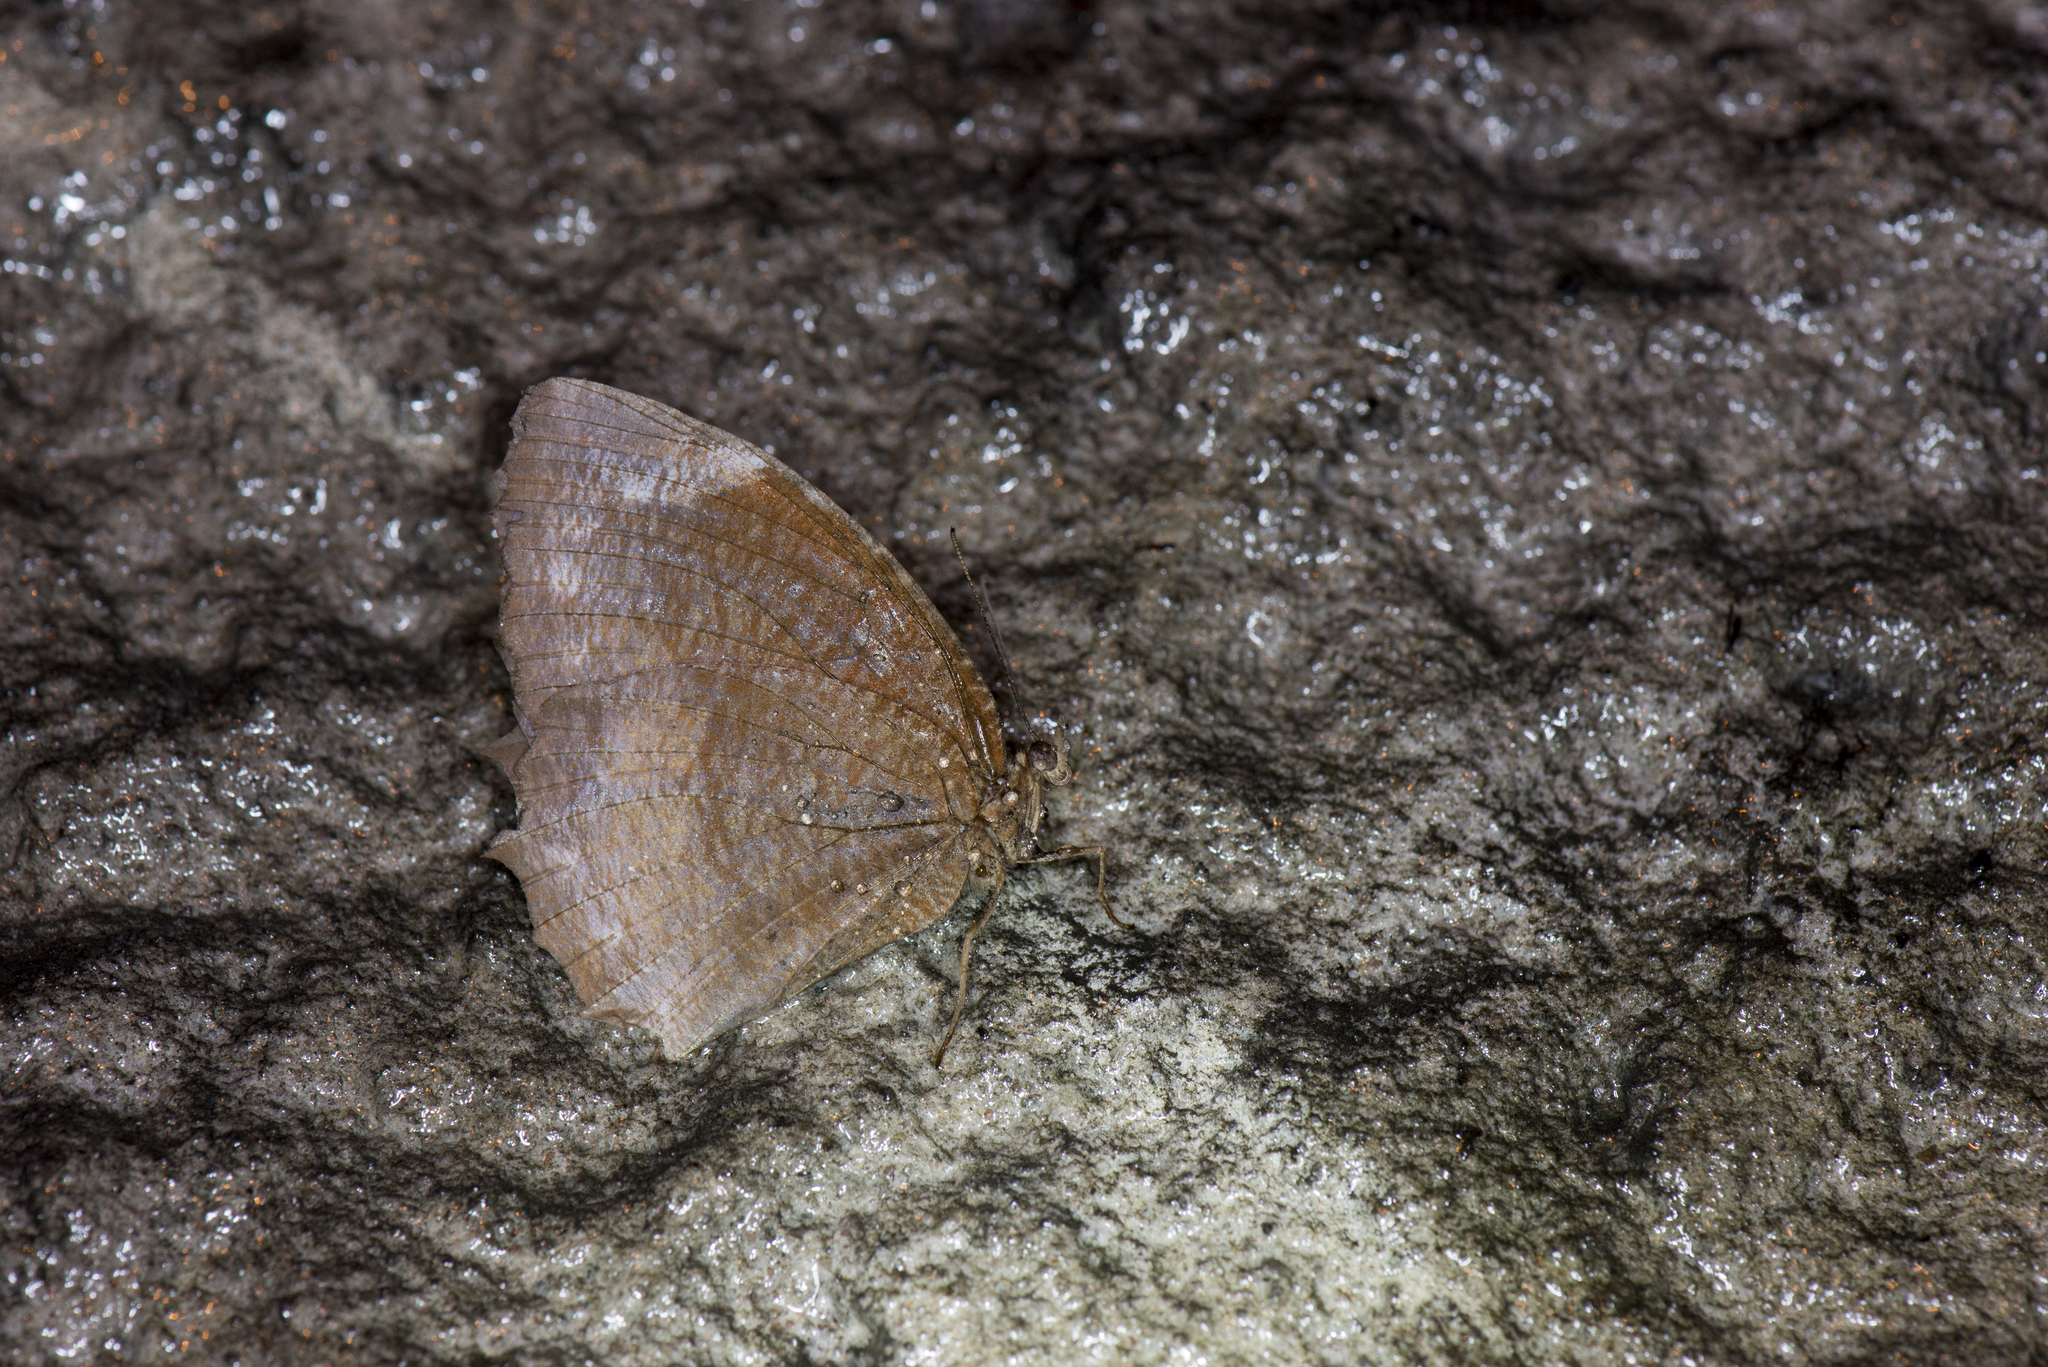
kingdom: Animalia
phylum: Arthropoda
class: Insecta
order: Lepidoptera
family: Nymphalidae
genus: Elymnias
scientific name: Elymnias hypermnestra
